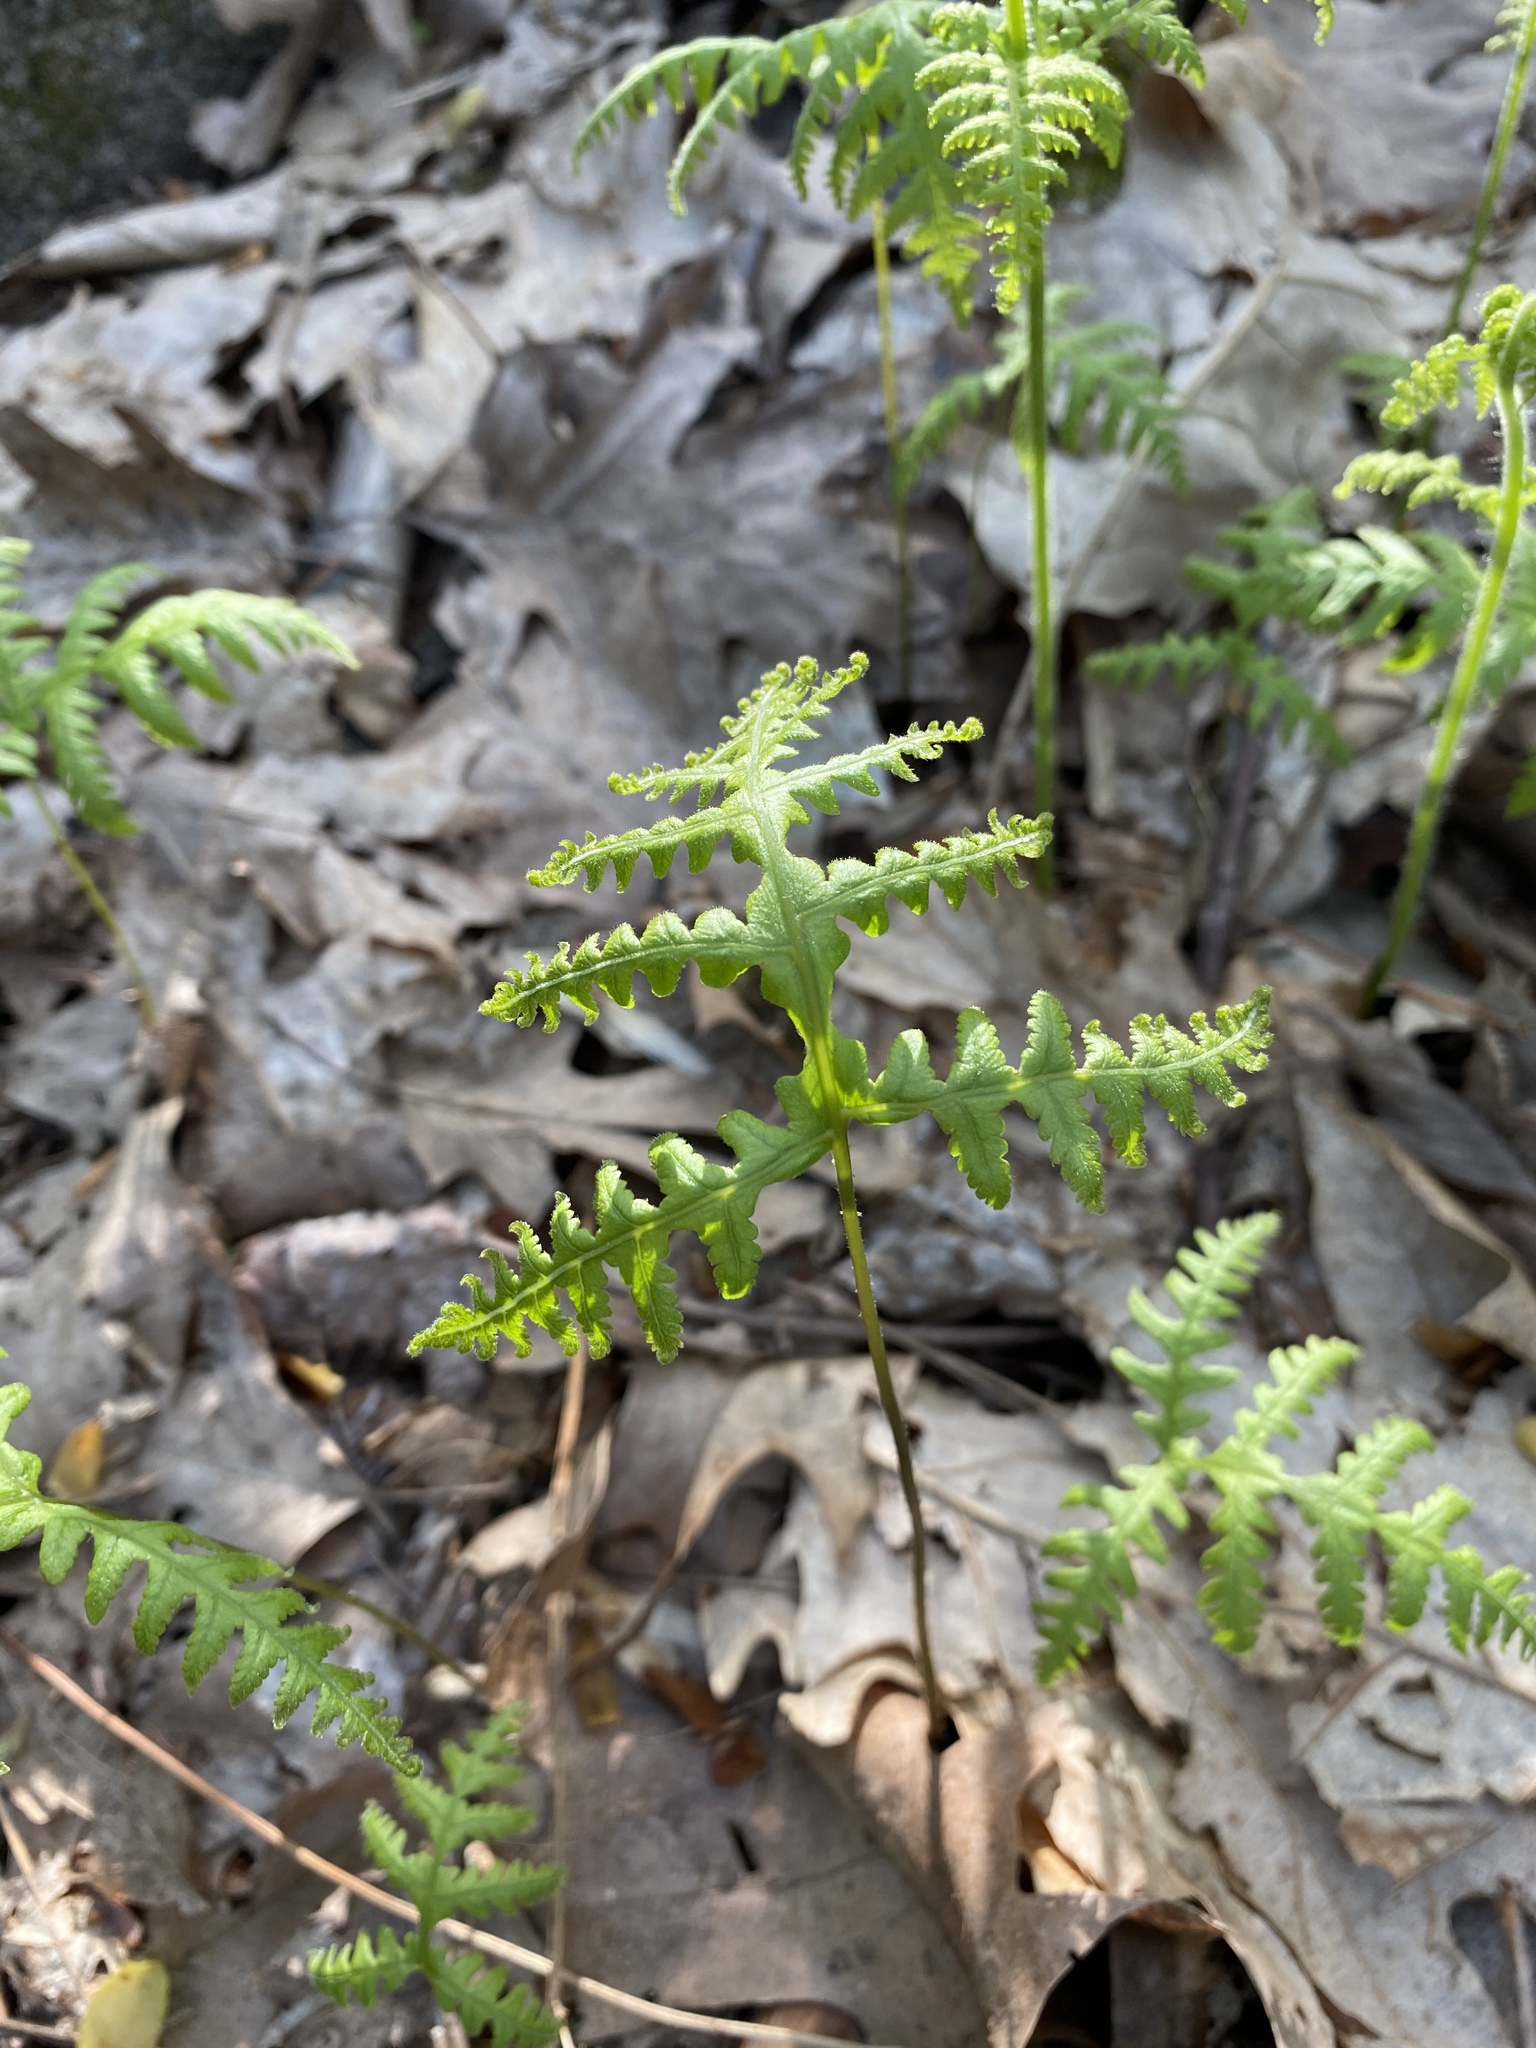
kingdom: Plantae
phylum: Tracheophyta
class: Polypodiopsida
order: Polypodiales
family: Thelypteridaceae
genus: Phegopteris
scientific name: Phegopteris hexagonoptera
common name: Broad beech fern
